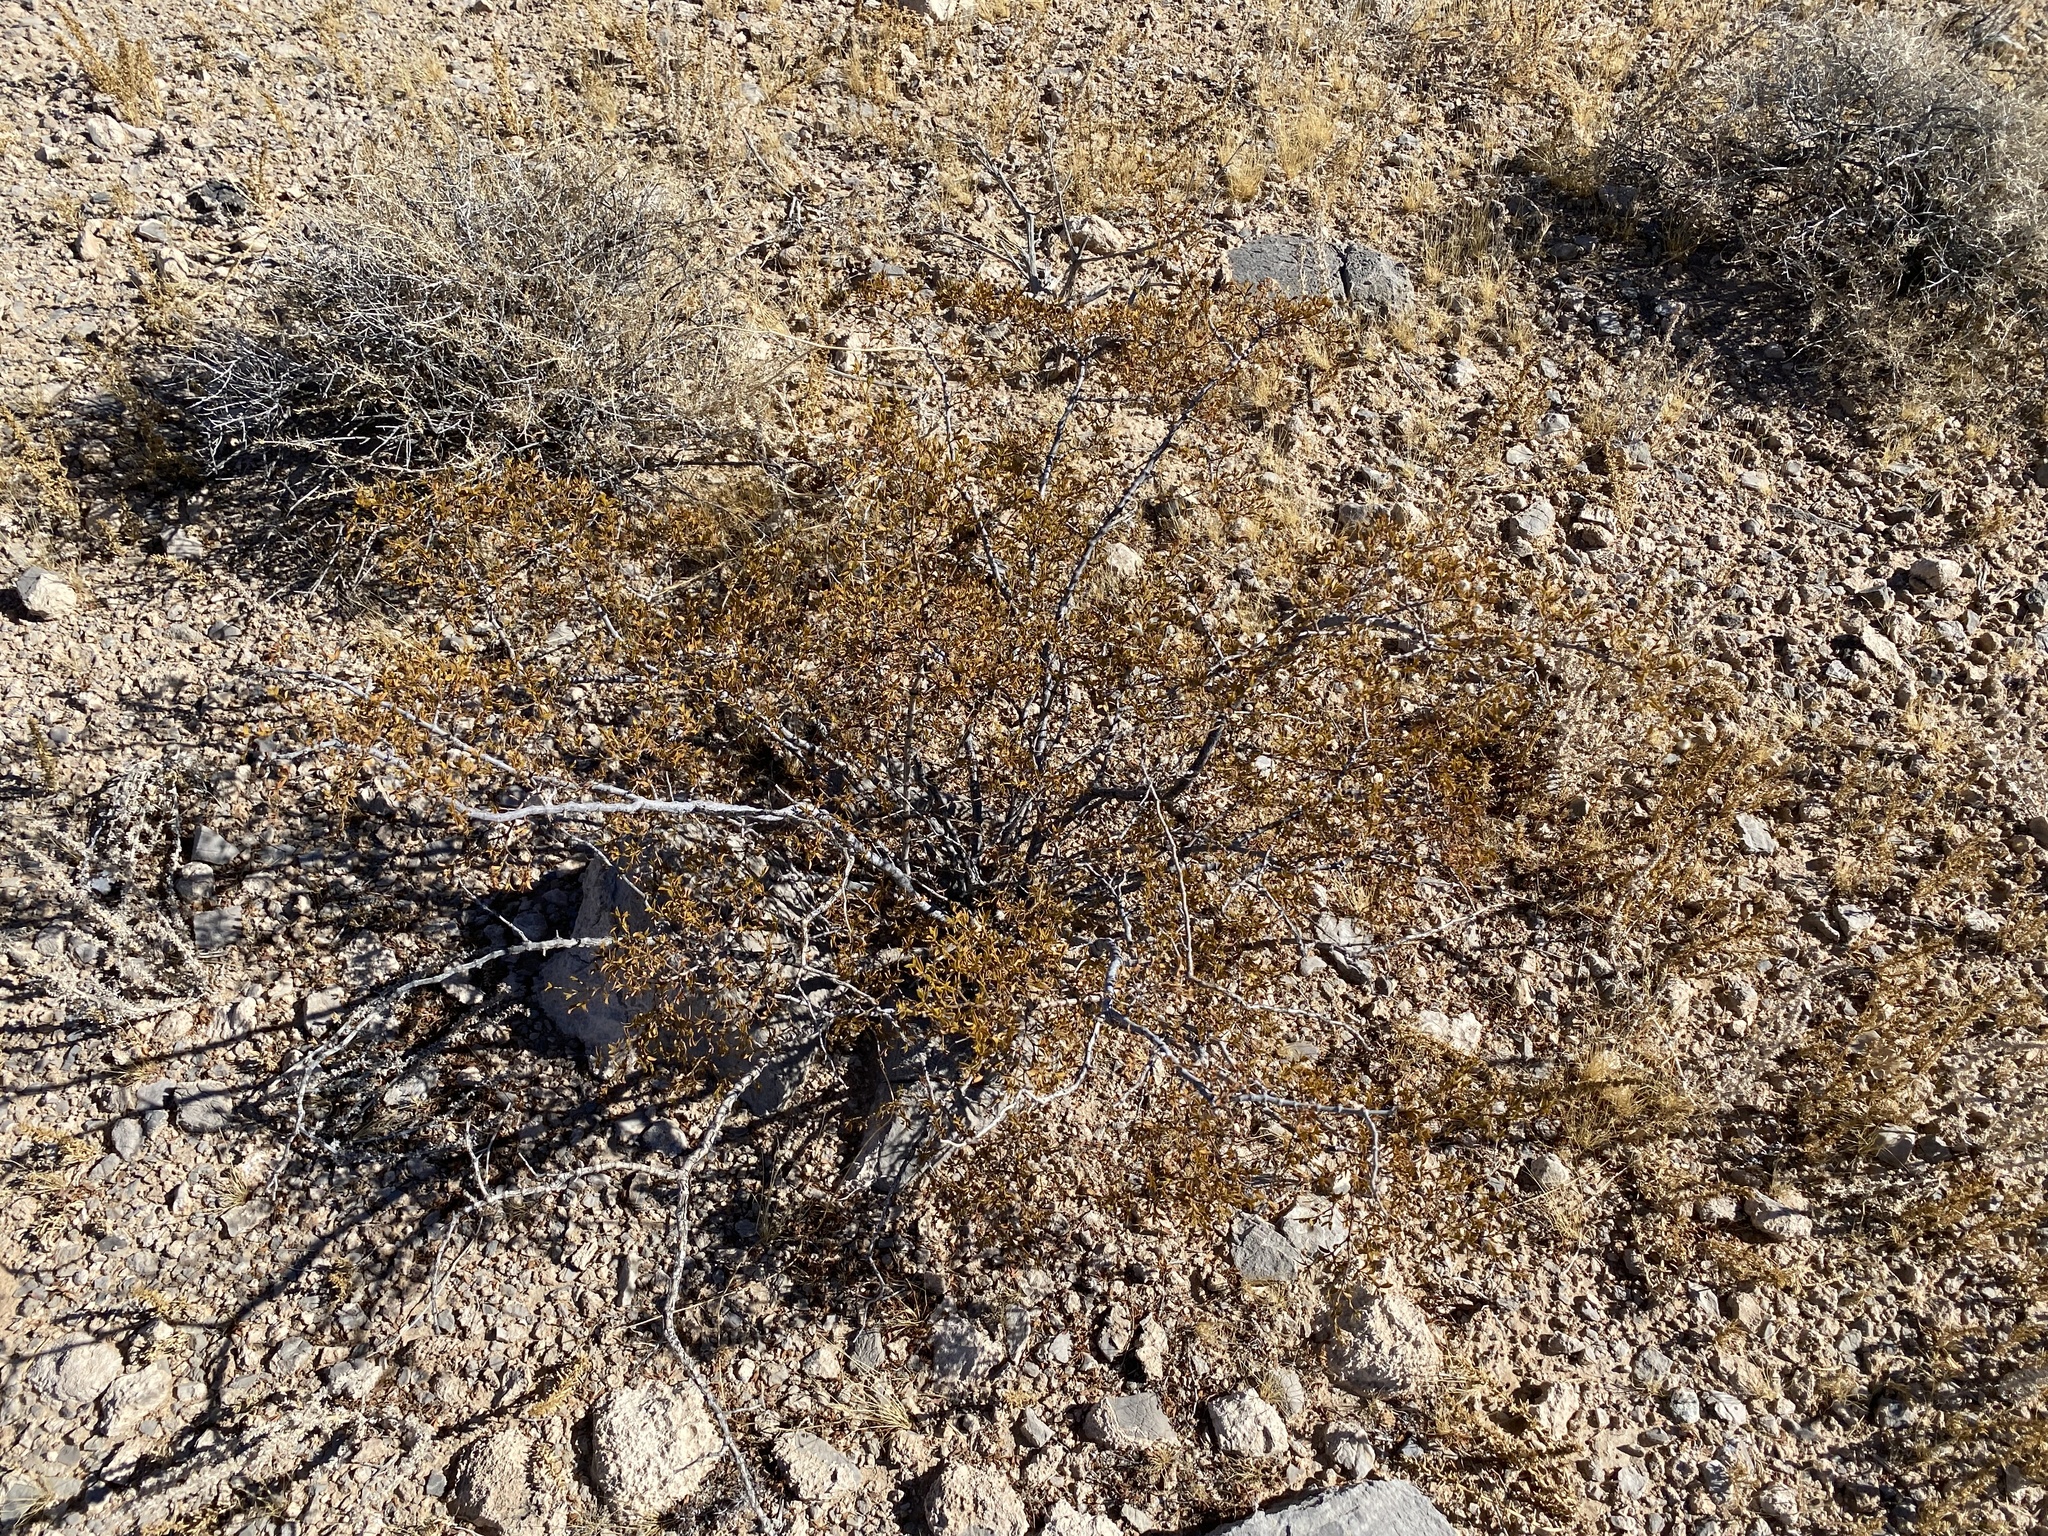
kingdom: Plantae
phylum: Tracheophyta
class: Magnoliopsida
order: Zygophyllales
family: Zygophyllaceae
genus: Larrea
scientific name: Larrea tridentata
